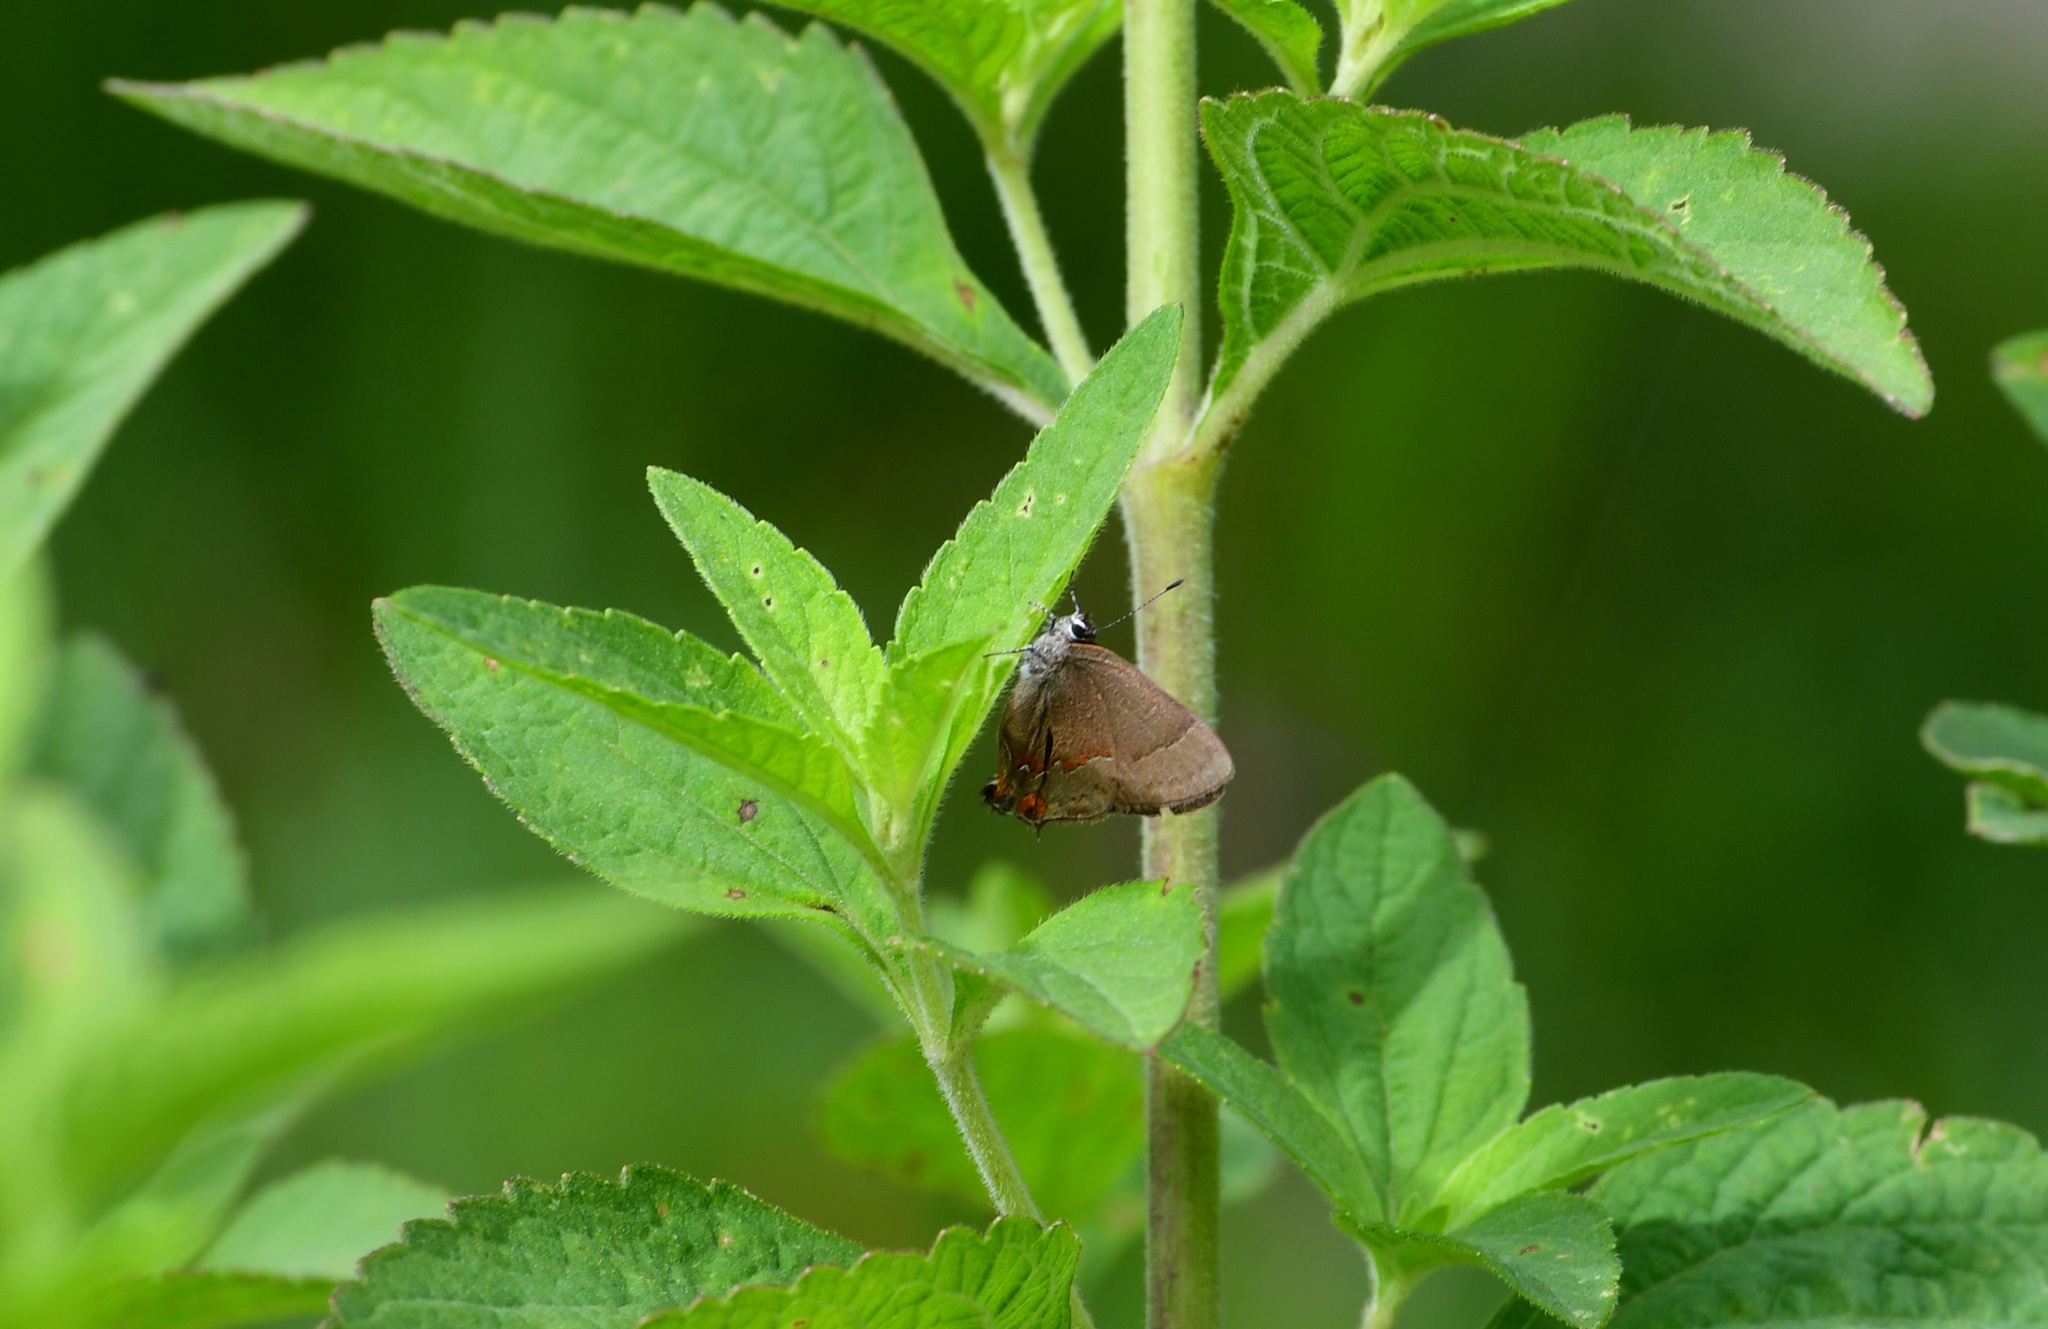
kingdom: Animalia
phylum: Arthropoda
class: Insecta
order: Lepidoptera
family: Lycaenidae
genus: Electrostrymon
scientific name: Electrostrymon
